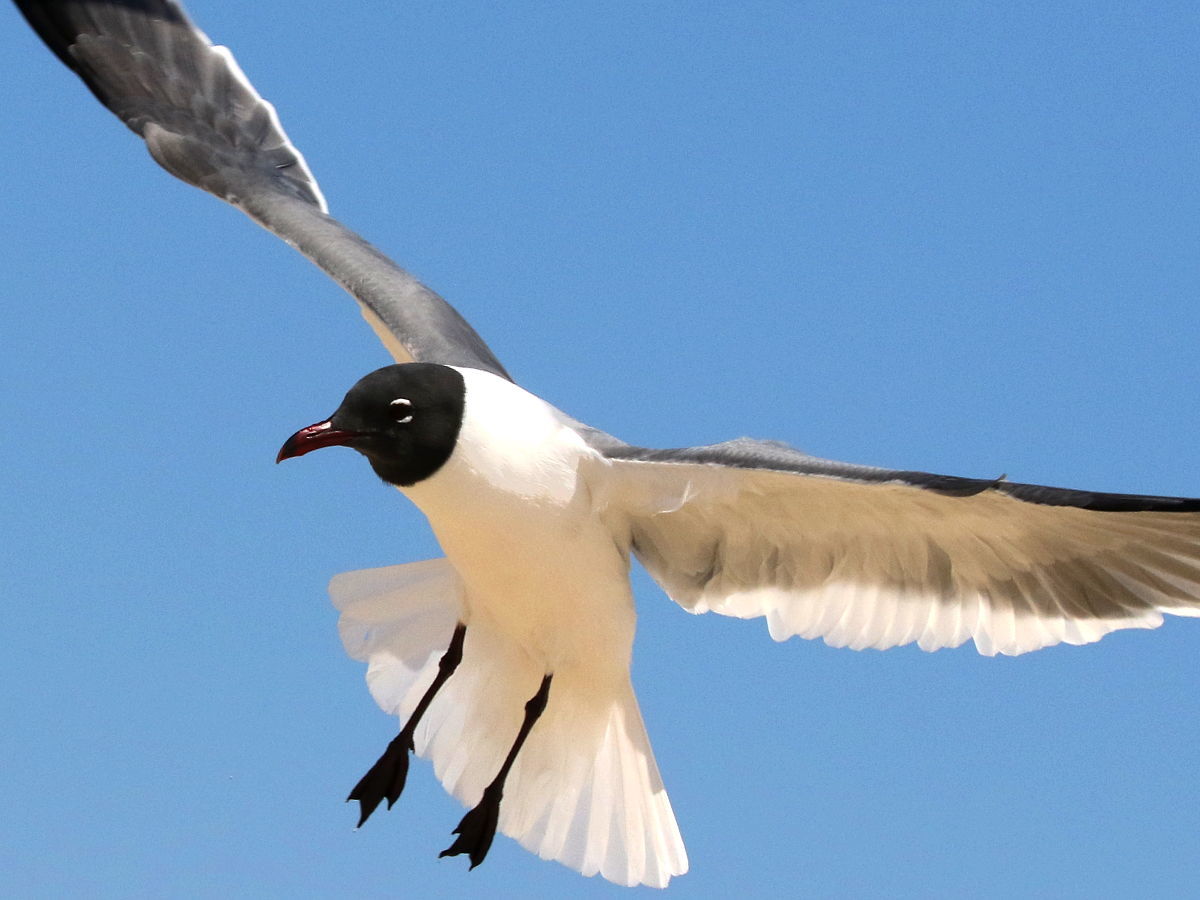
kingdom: Animalia
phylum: Chordata
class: Aves
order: Charadriiformes
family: Laridae
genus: Leucophaeus
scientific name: Leucophaeus atricilla
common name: Laughing gull
